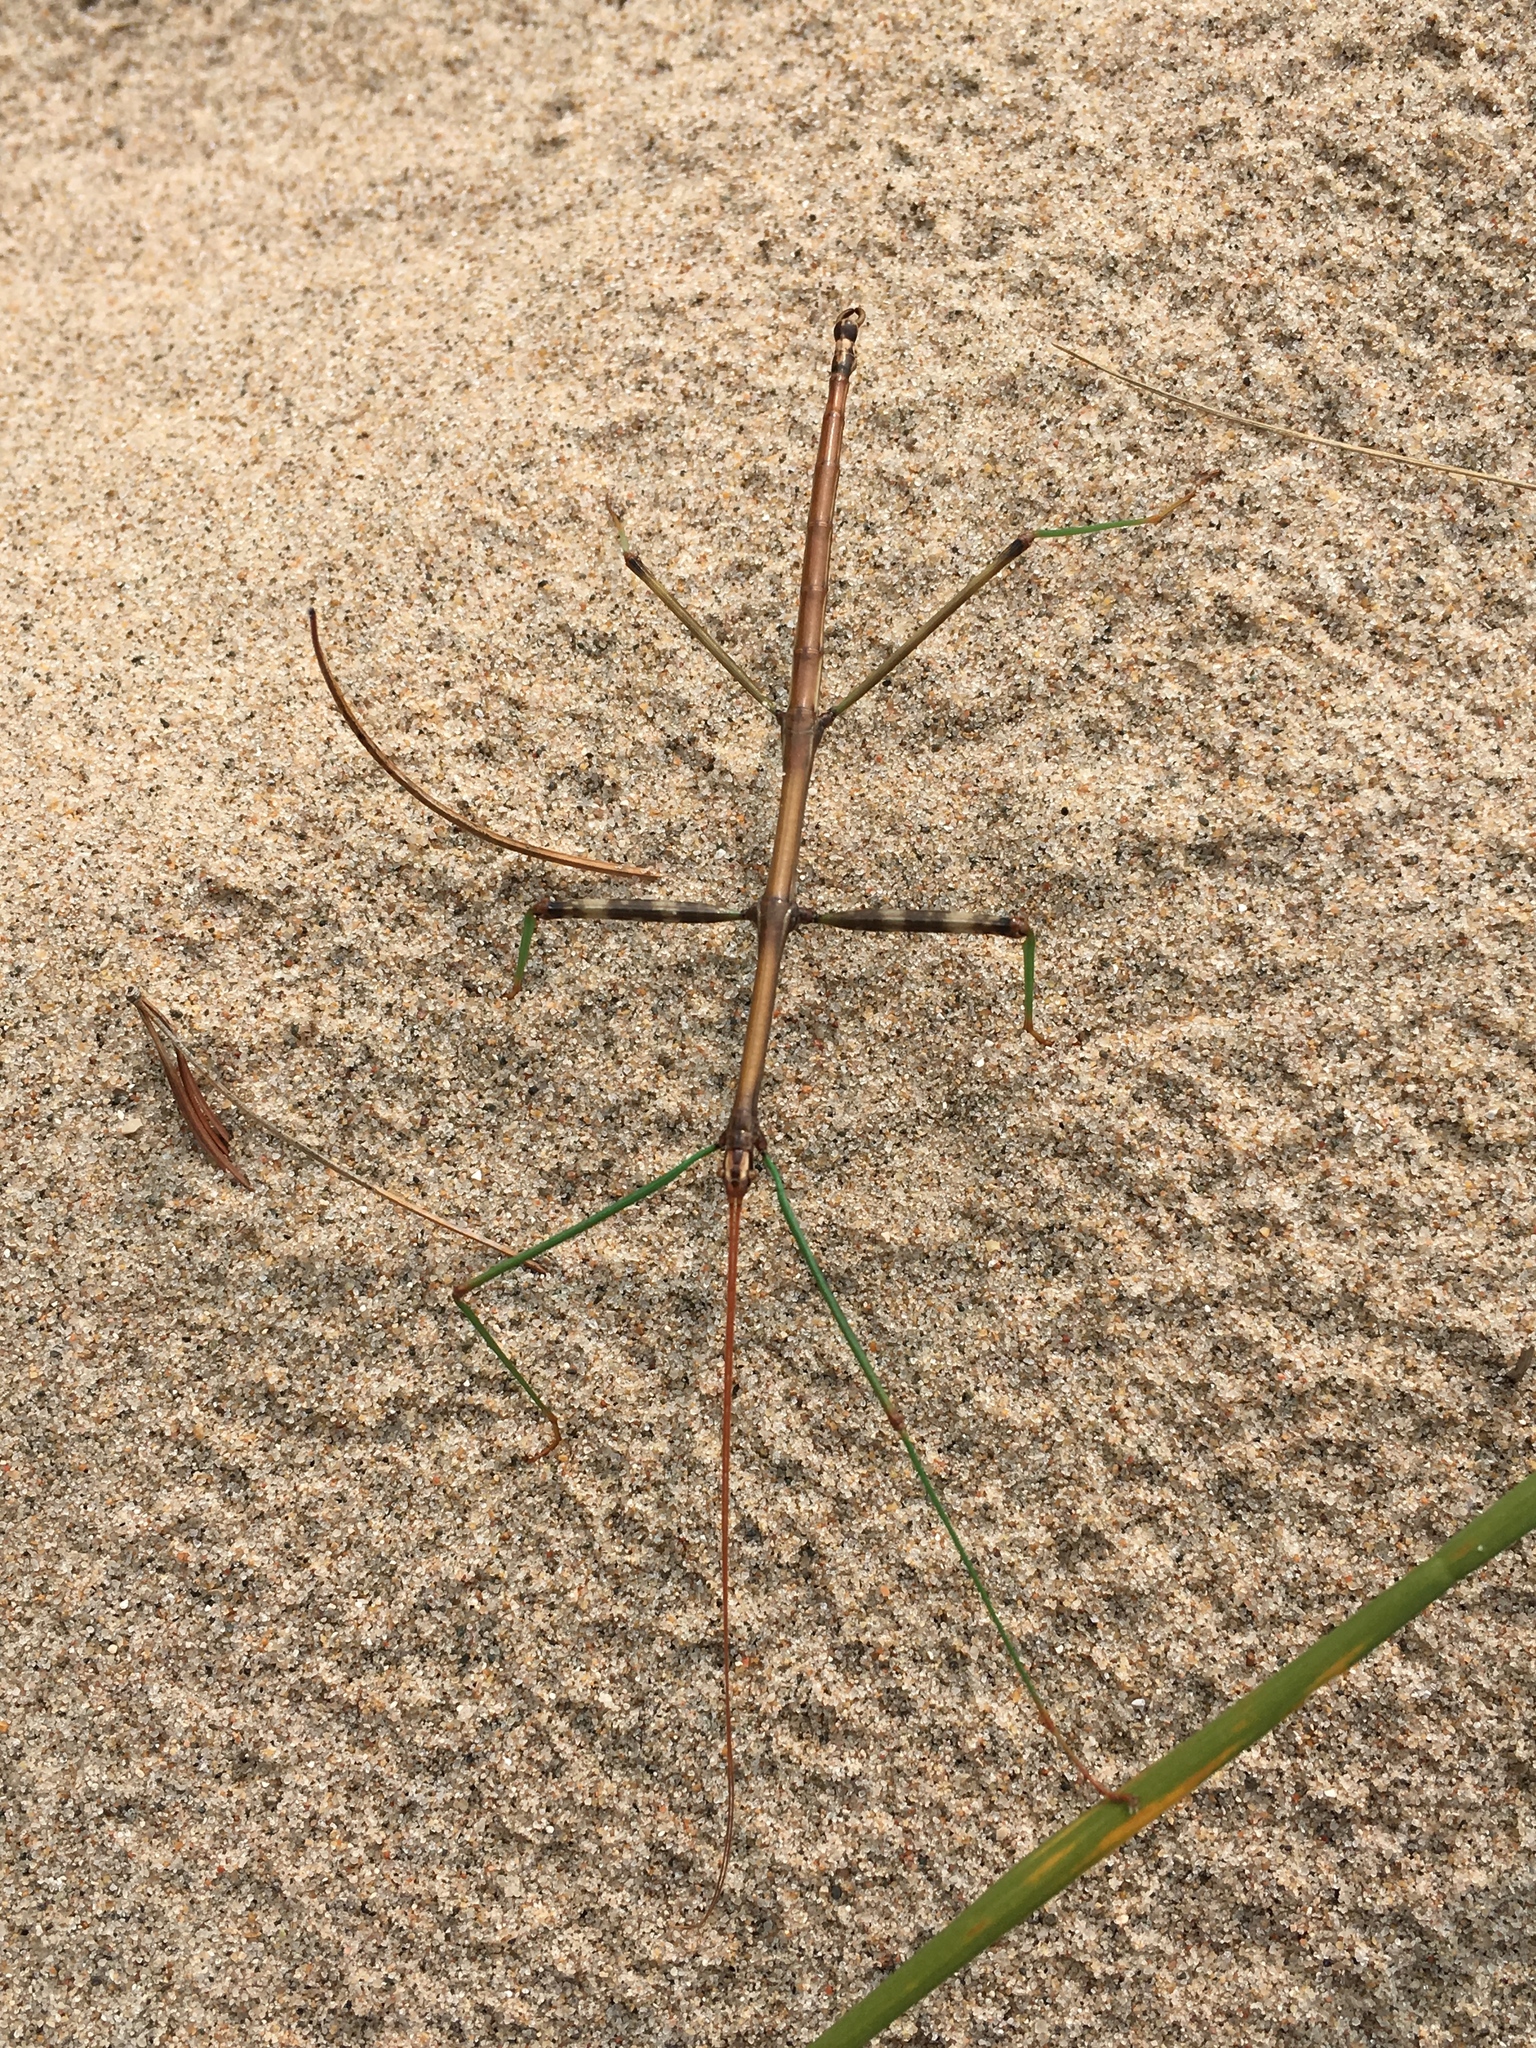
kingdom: Animalia
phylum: Arthropoda
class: Insecta
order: Phasmida
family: Diapheromeridae
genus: Diapheromera
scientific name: Diapheromera femorata
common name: Common american walkingstick
